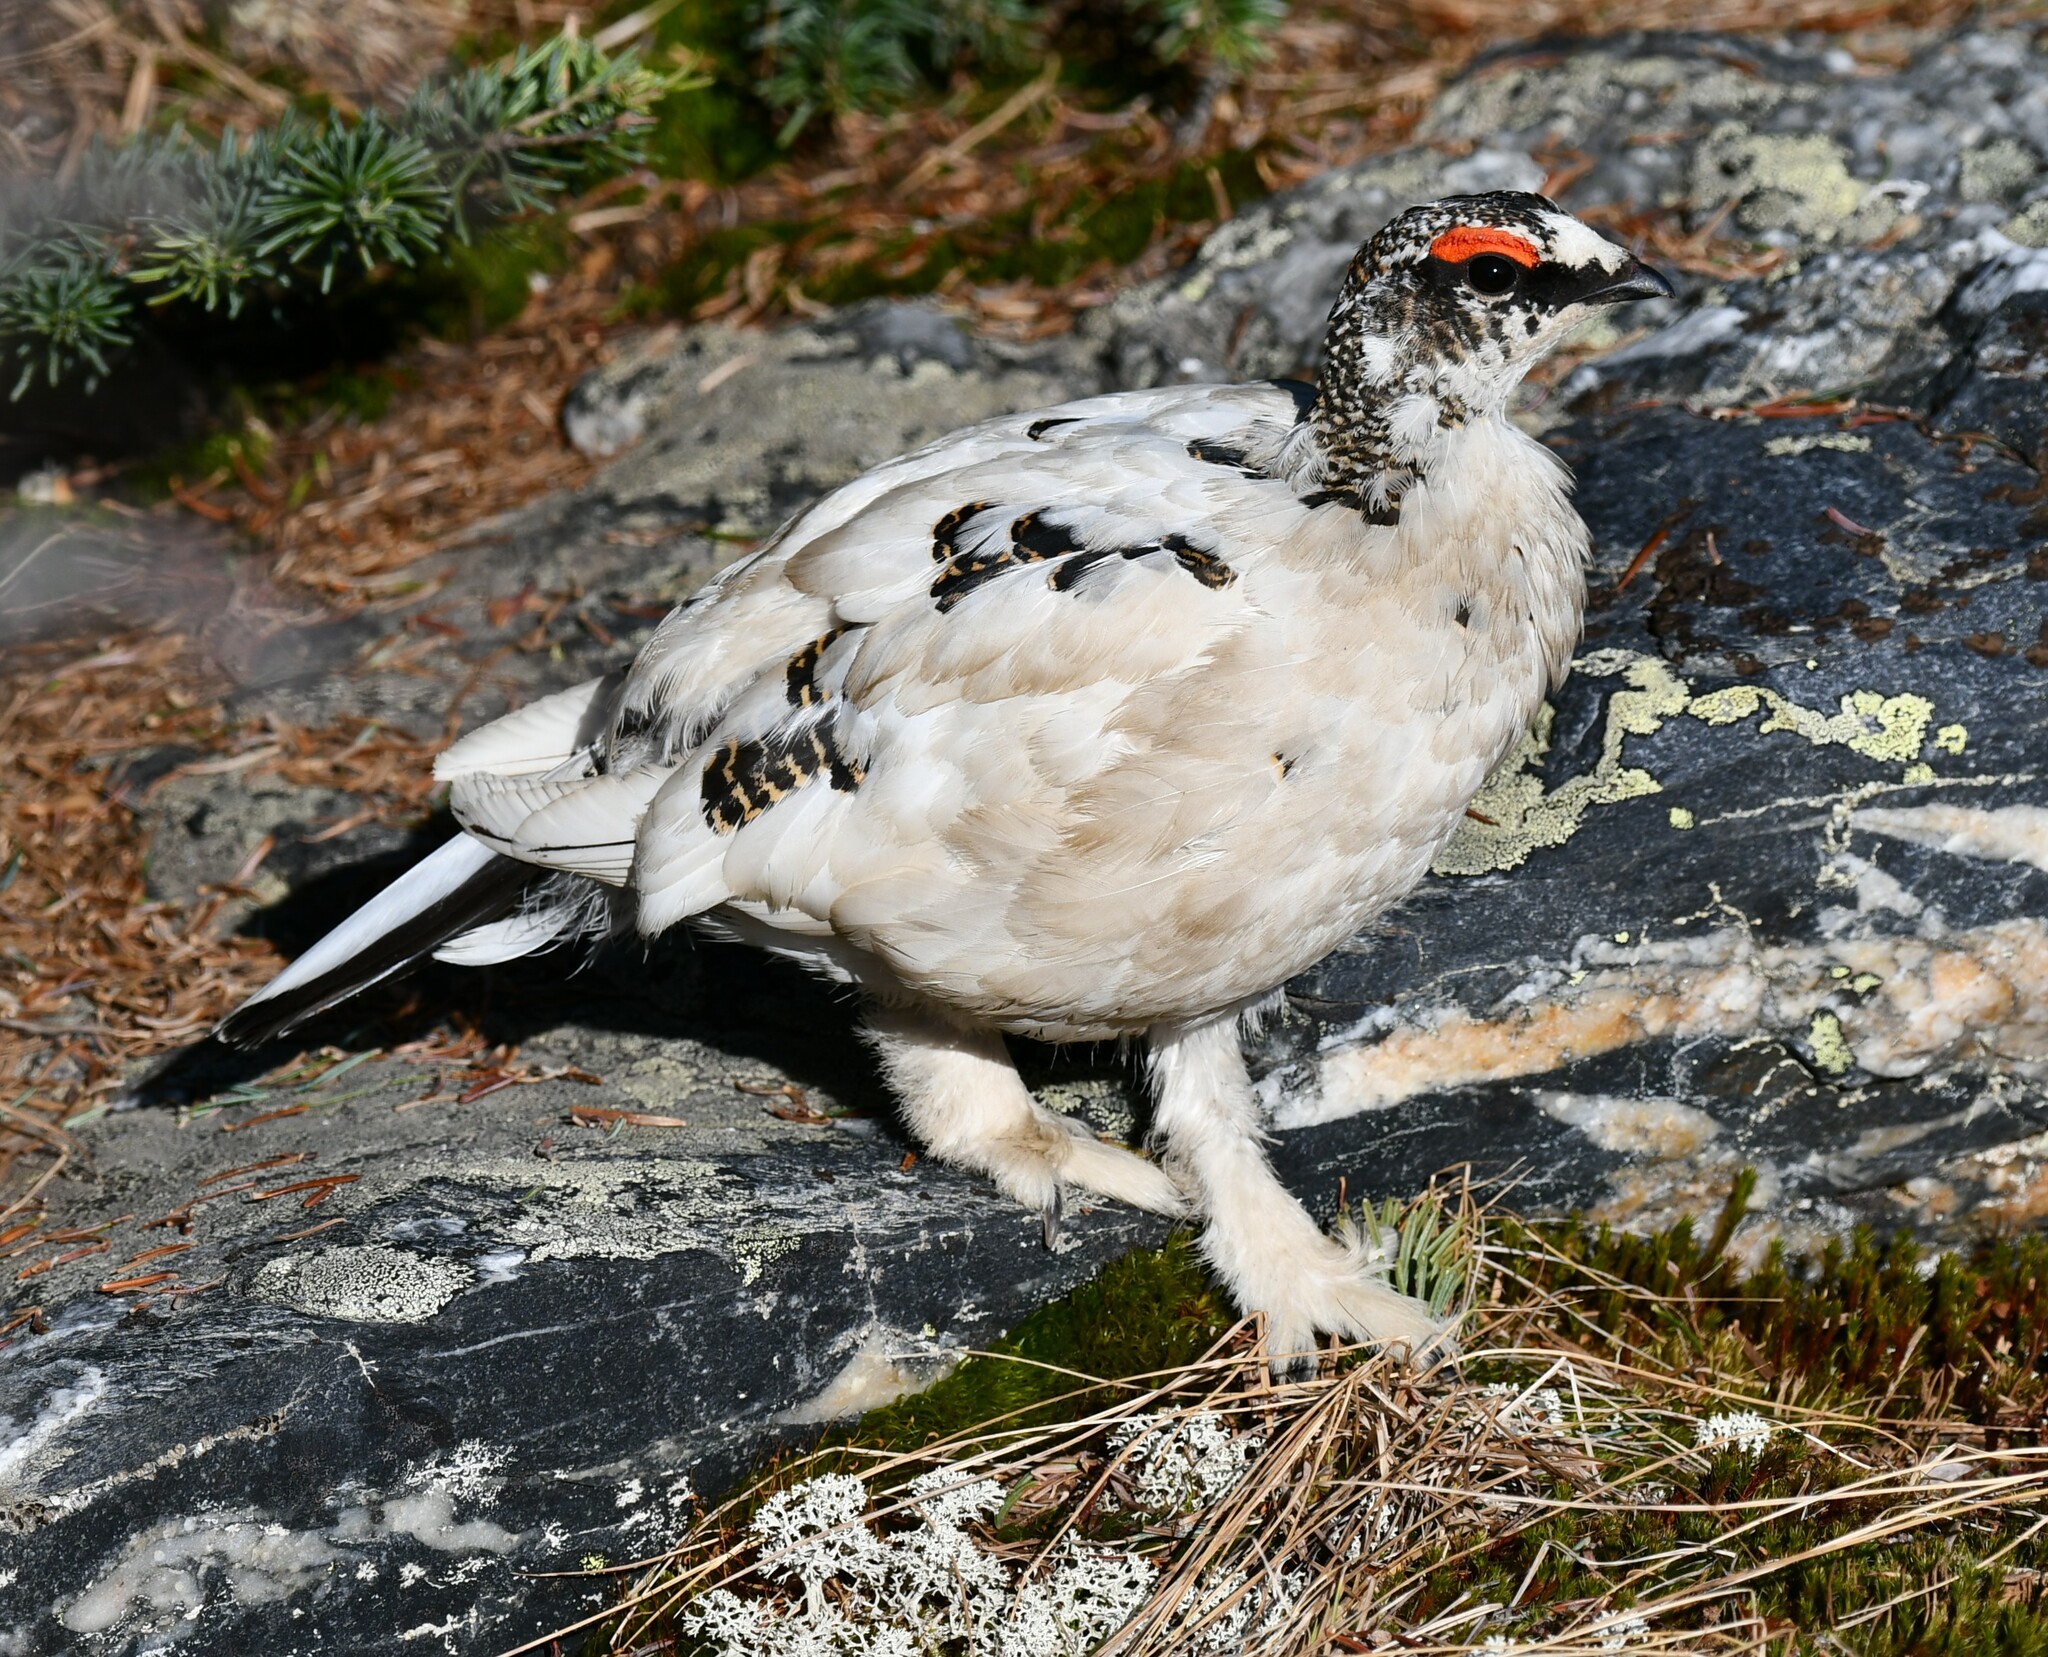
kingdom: Animalia
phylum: Chordata
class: Aves
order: Galliformes
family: Phasianidae
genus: Lagopus
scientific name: Lagopus muta
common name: Rock ptarmigan
